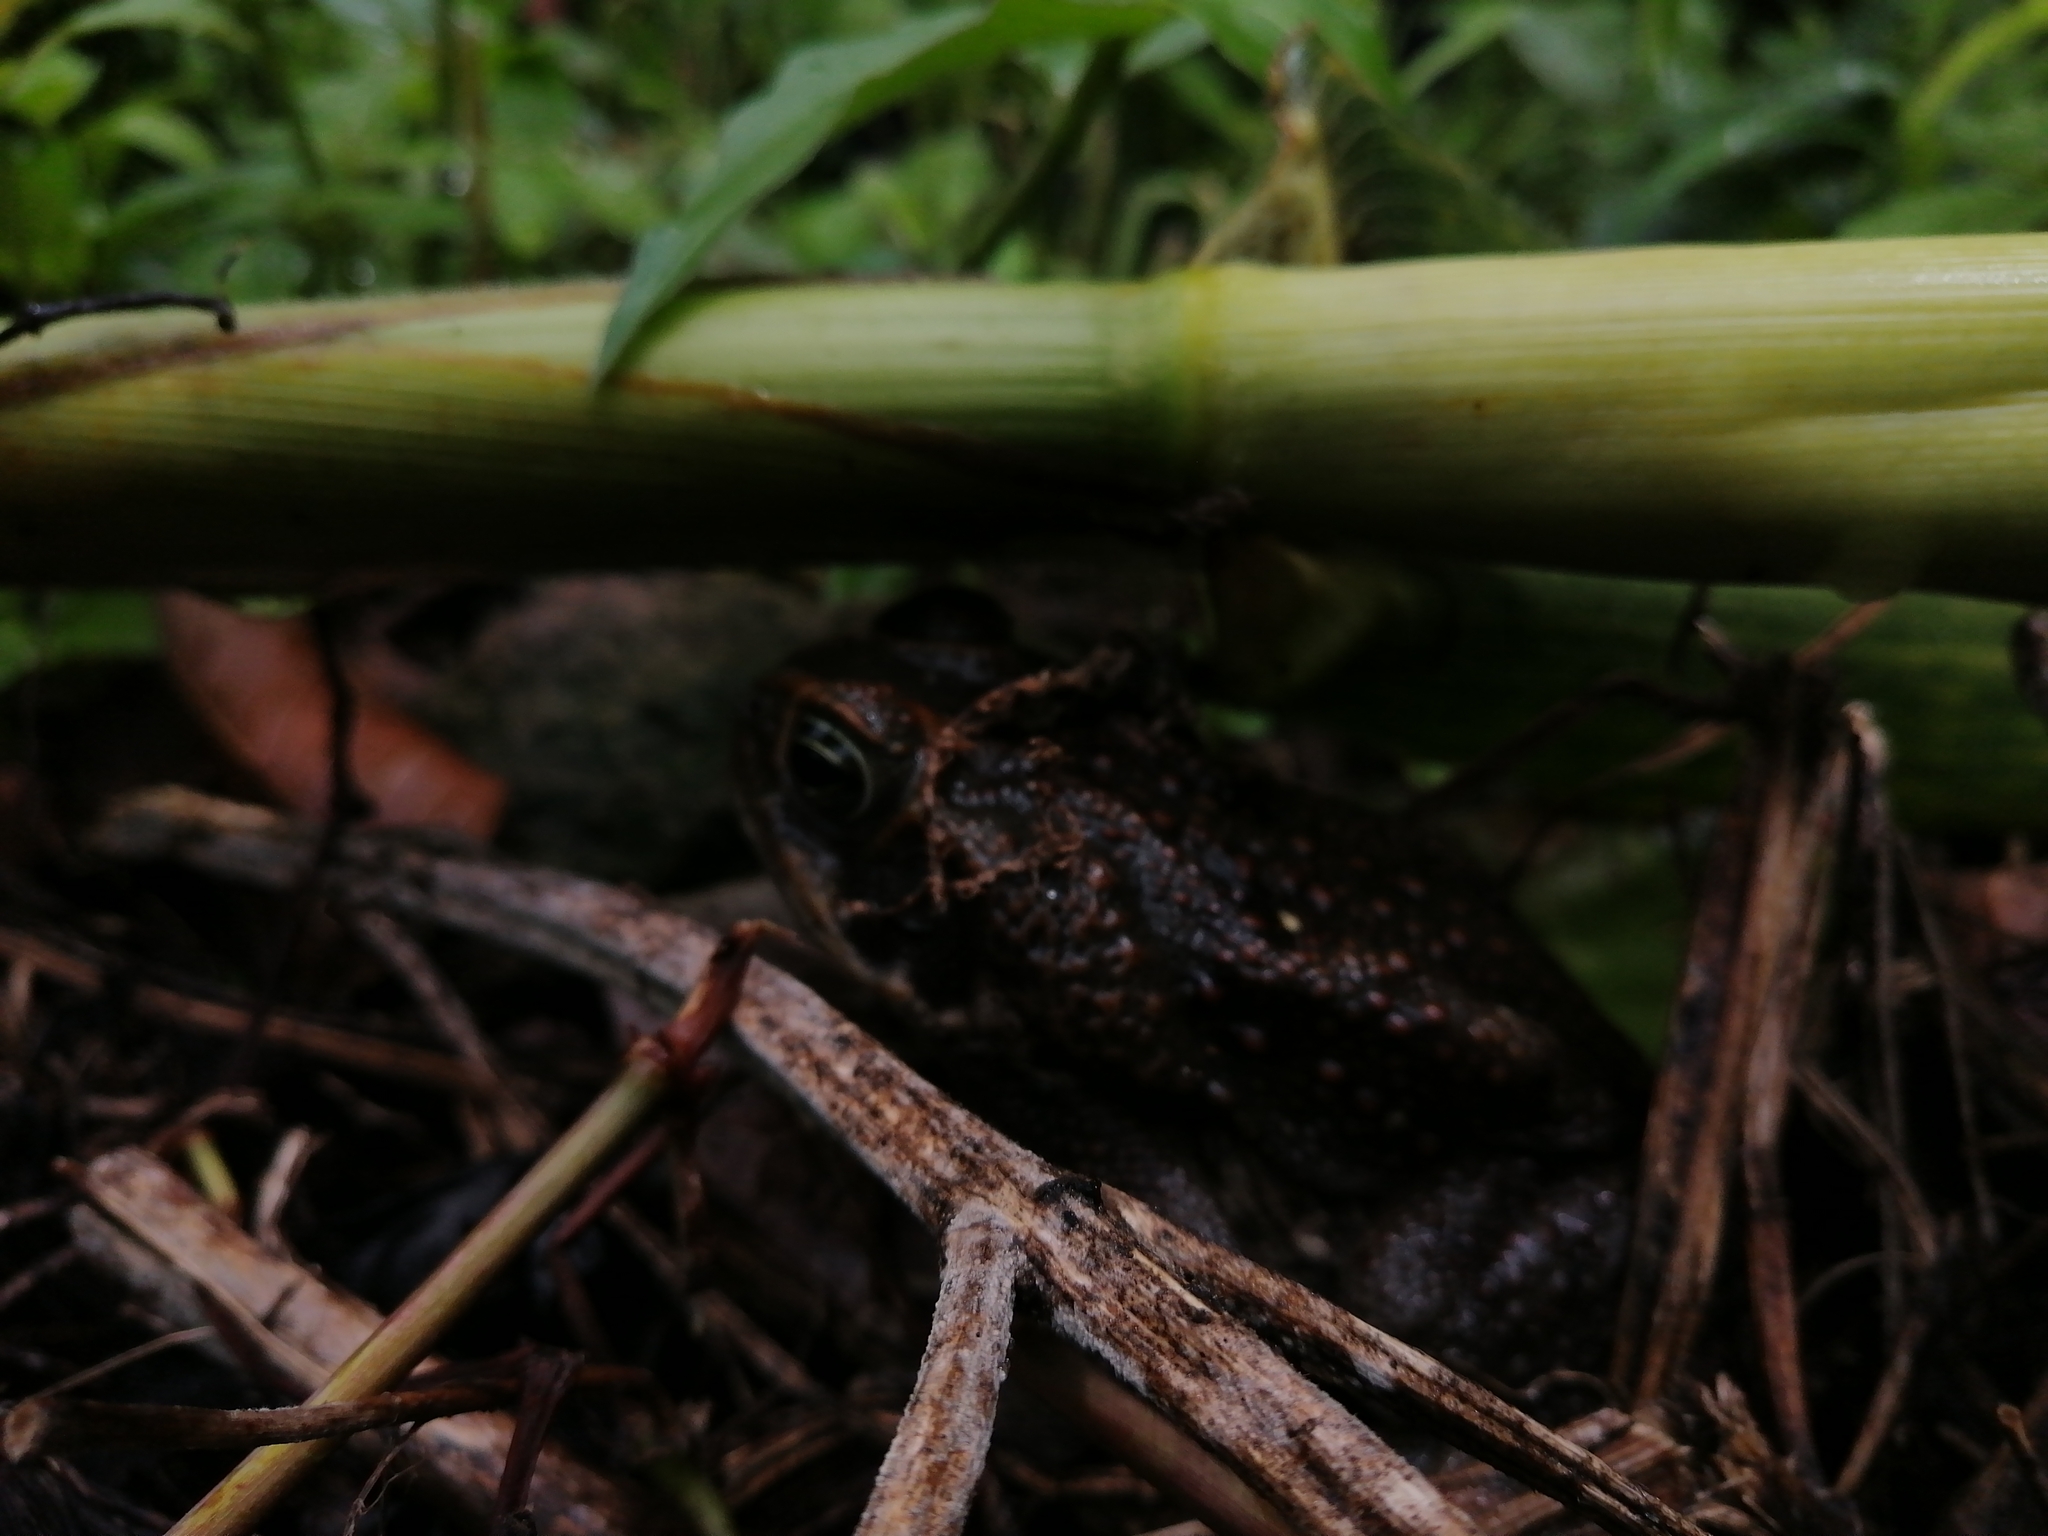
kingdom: Animalia
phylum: Chordata
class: Amphibia
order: Anura
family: Bufonidae
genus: Rhinella
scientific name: Rhinella horribilis
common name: Mesoamerican cane toad
